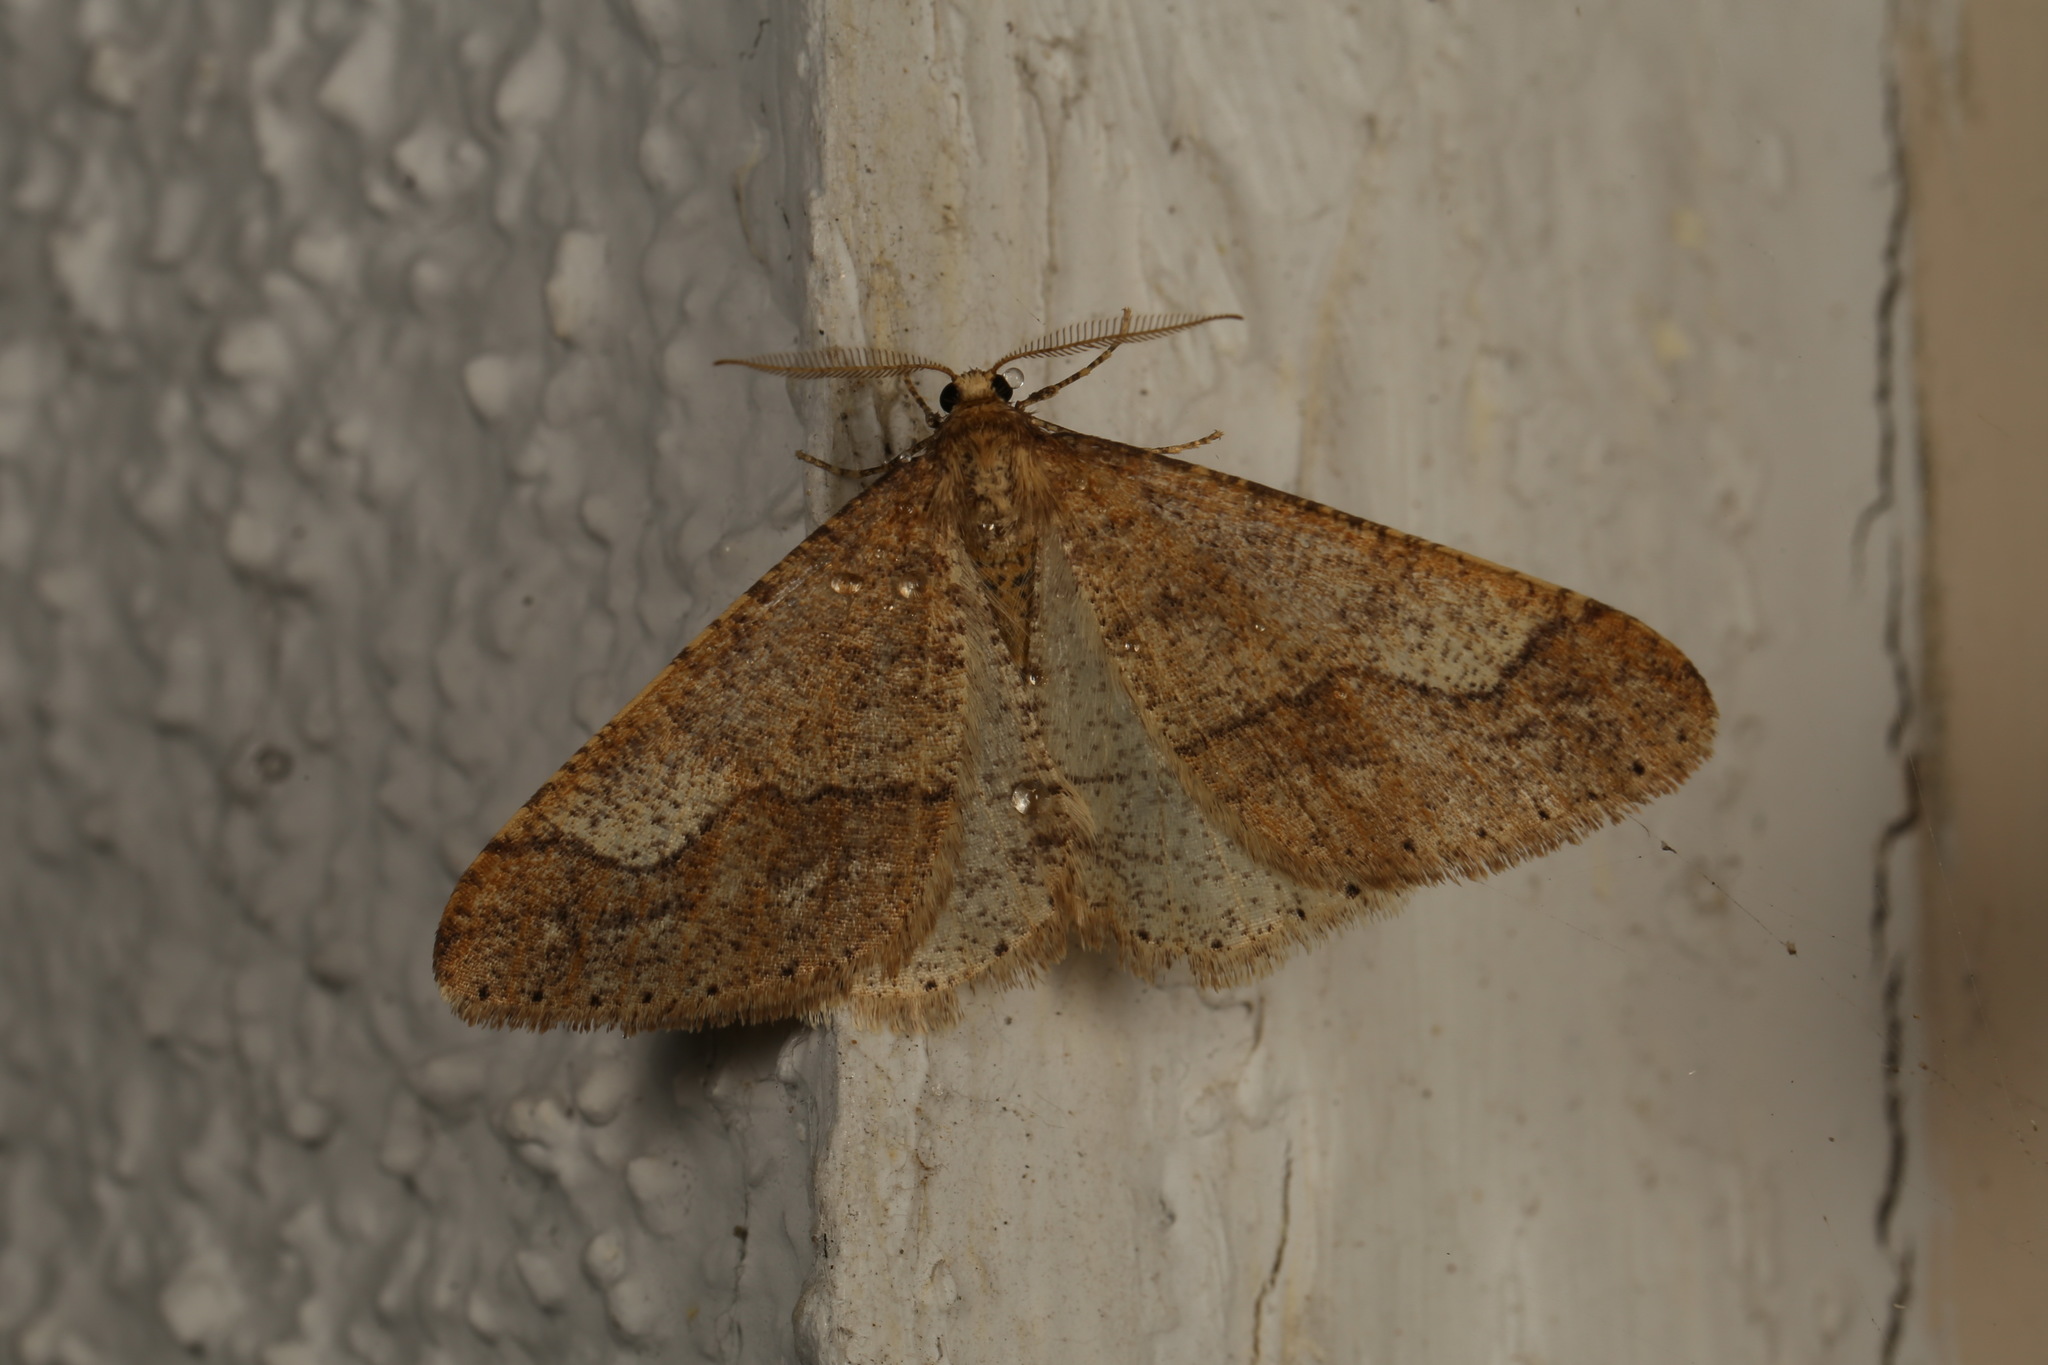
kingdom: Animalia
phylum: Arthropoda
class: Insecta
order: Lepidoptera
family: Geometridae
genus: Agriopis
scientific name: Agriopis marginaria
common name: Dotted border
